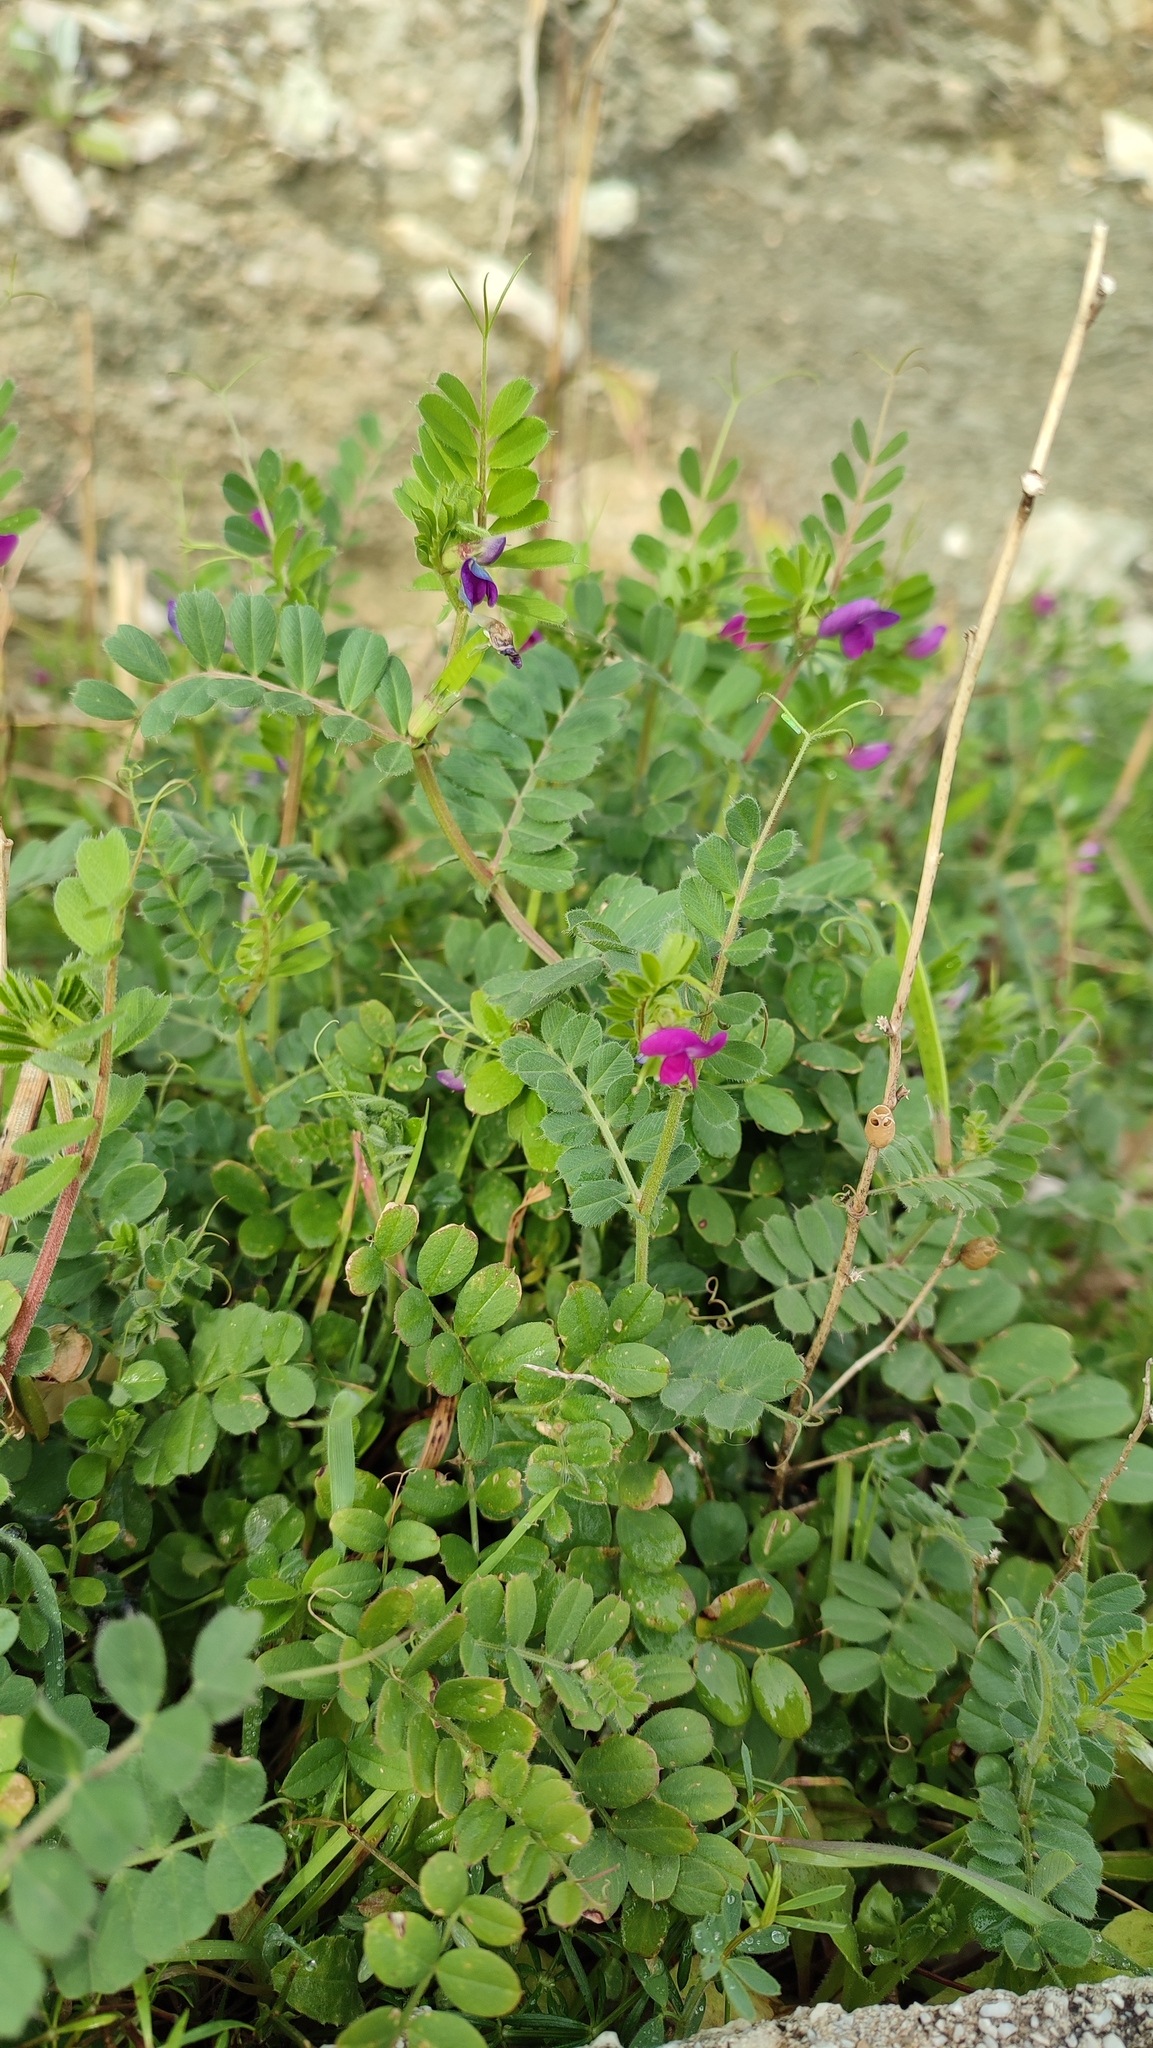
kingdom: Plantae
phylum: Tracheophyta
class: Magnoliopsida
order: Fabales
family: Fabaceae
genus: Vicia
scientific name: Vicia sativa
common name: Garden vetch
